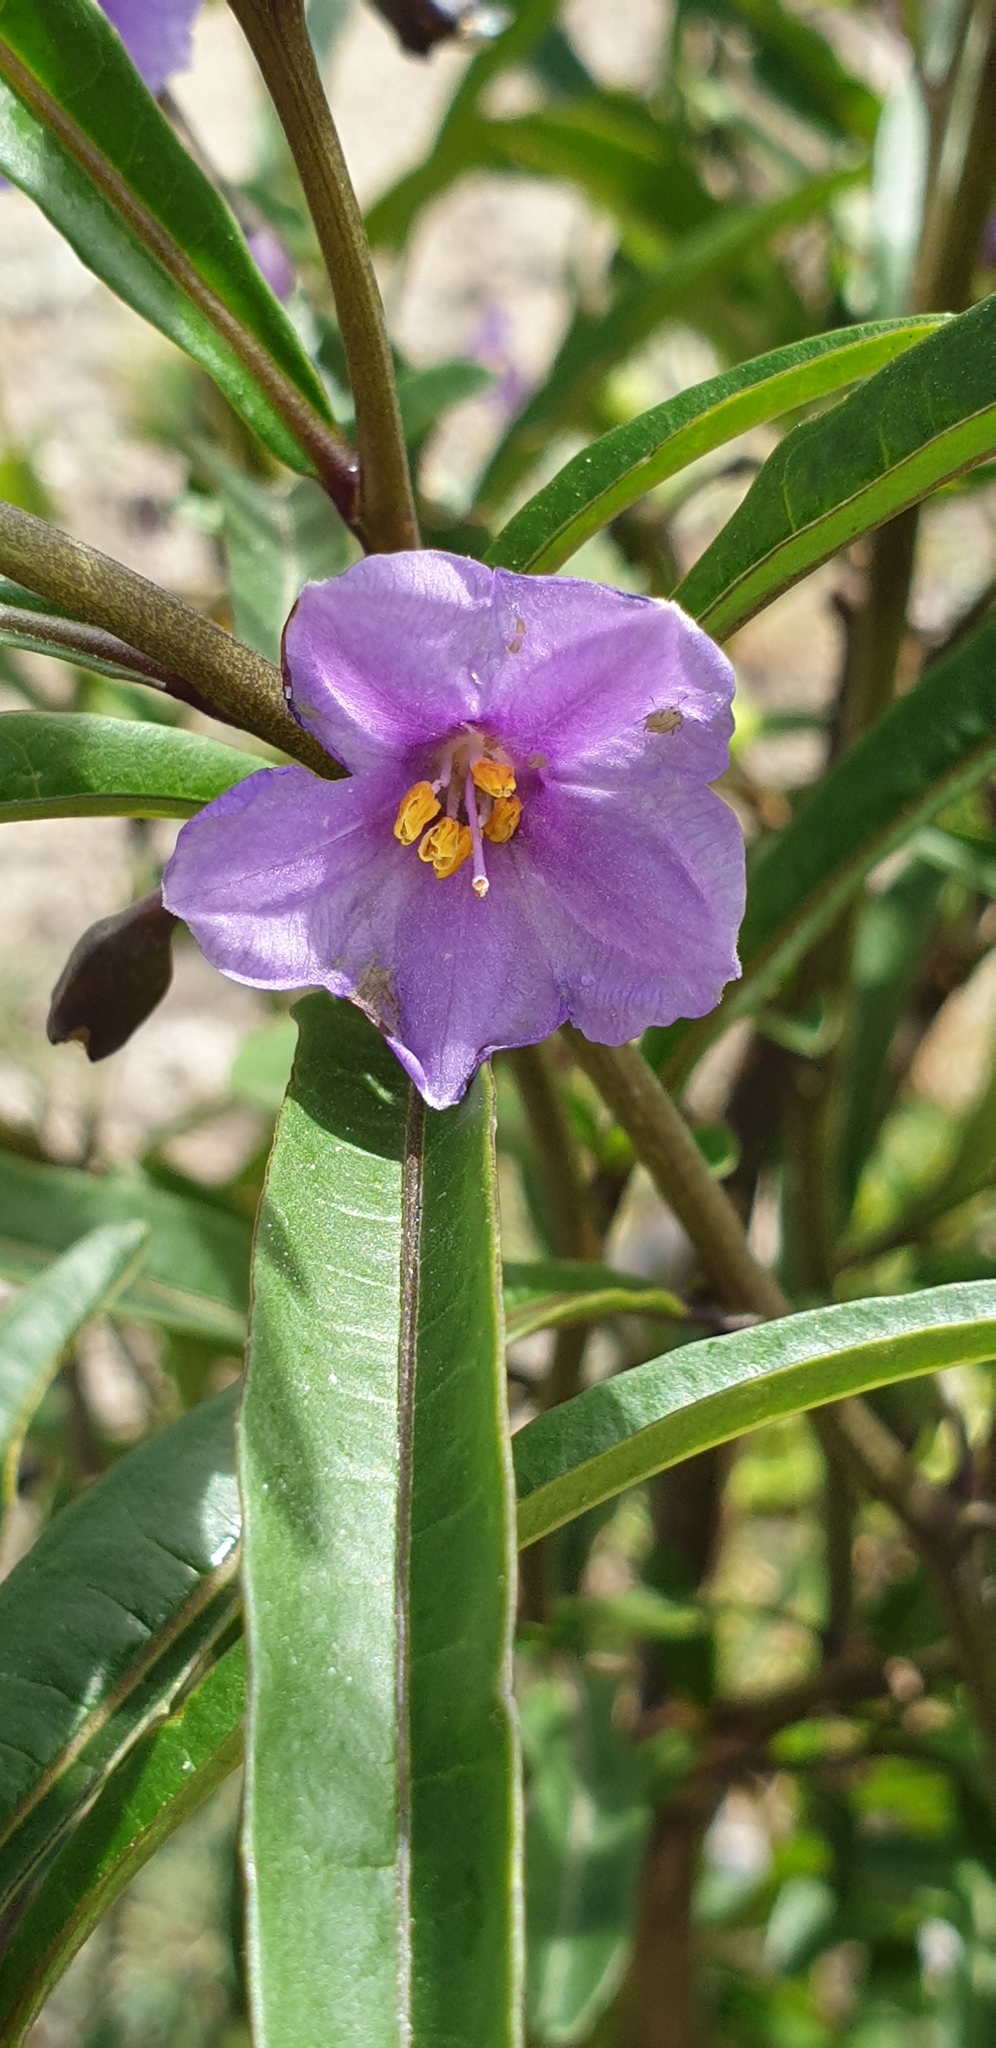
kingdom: Plantae
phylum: Tracheophyta
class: Magnoliopsida
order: Solanales
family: Solanaceae
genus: Solanum
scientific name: Solanum simile
